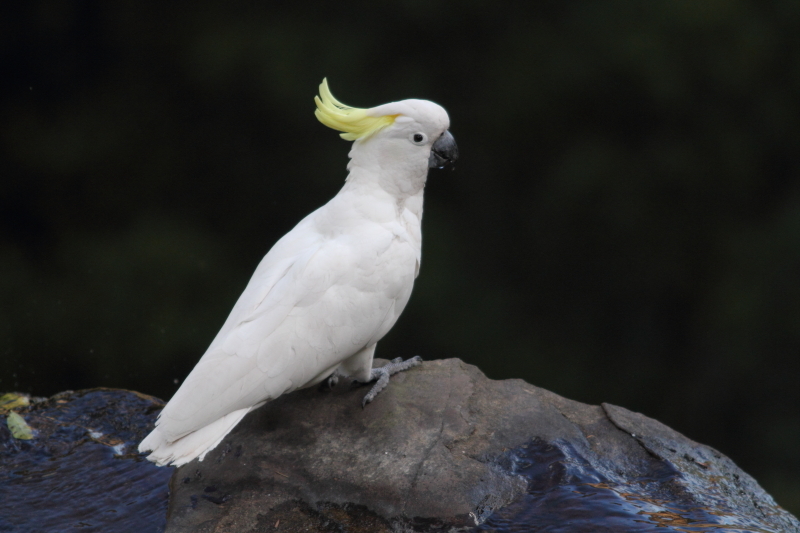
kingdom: Animalia
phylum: Chordata
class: Aves
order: Psittaciformes
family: Psittacidae
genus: Cacatua
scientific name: Cacatua galerita
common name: Sulphur-crested cockatoo
